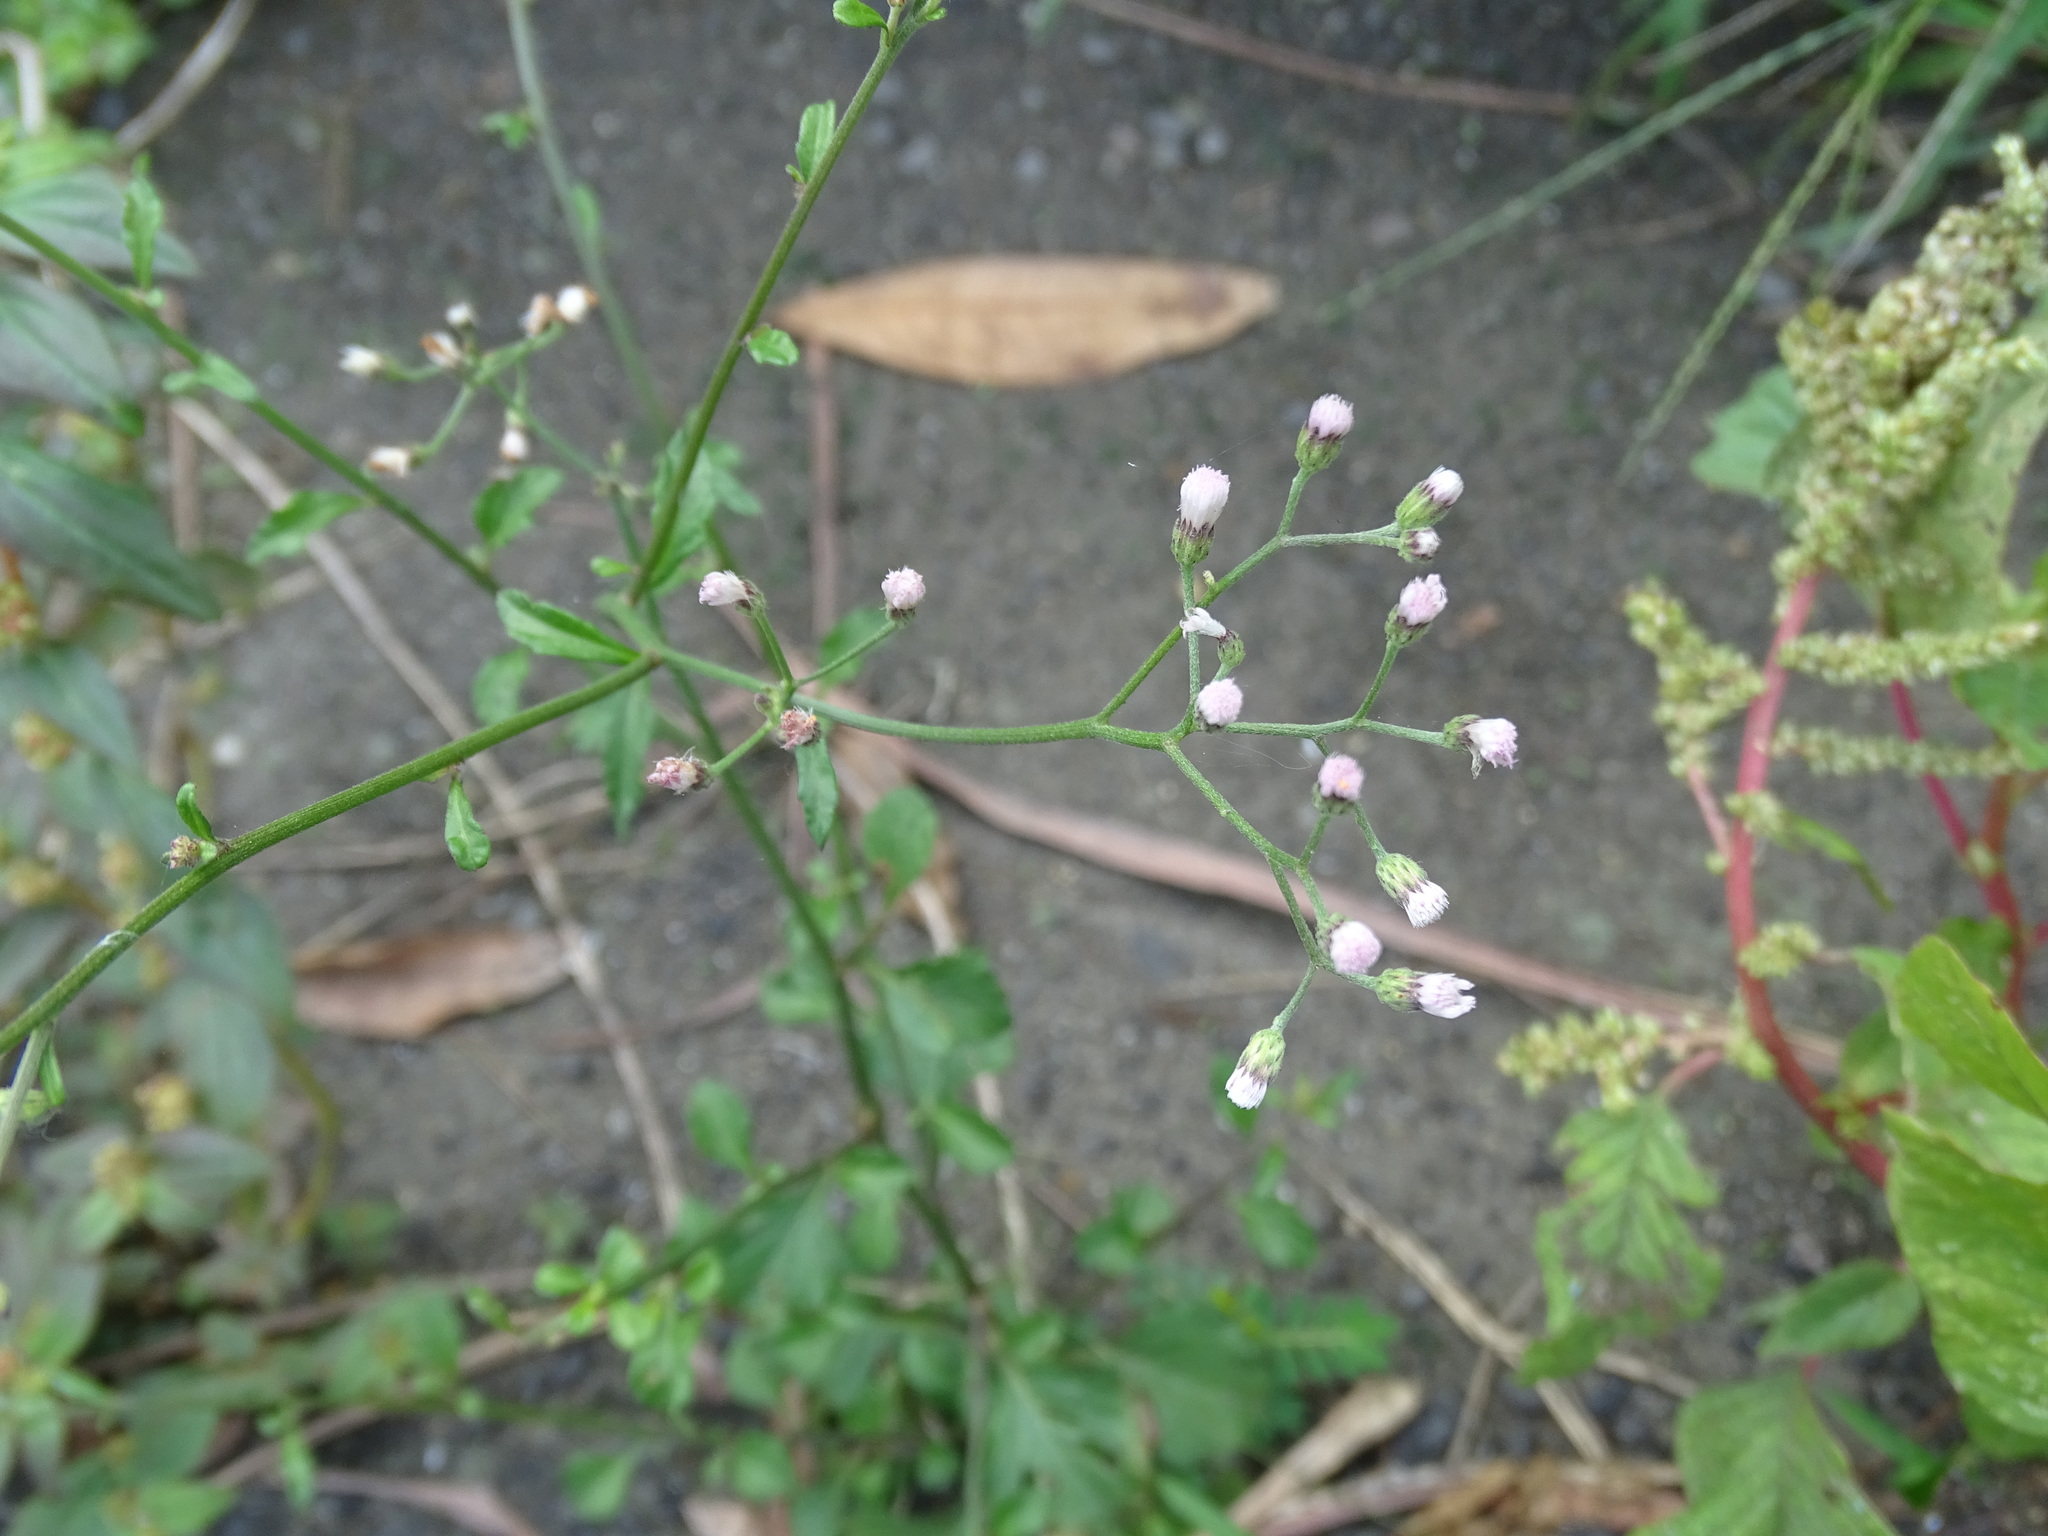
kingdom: Plantae
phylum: Tracheophyta
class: Magnoliopsida
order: Asterales
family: Asteraceae
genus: Cyanthillium
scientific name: Cyanthillium cinereum
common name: Little ironweed
